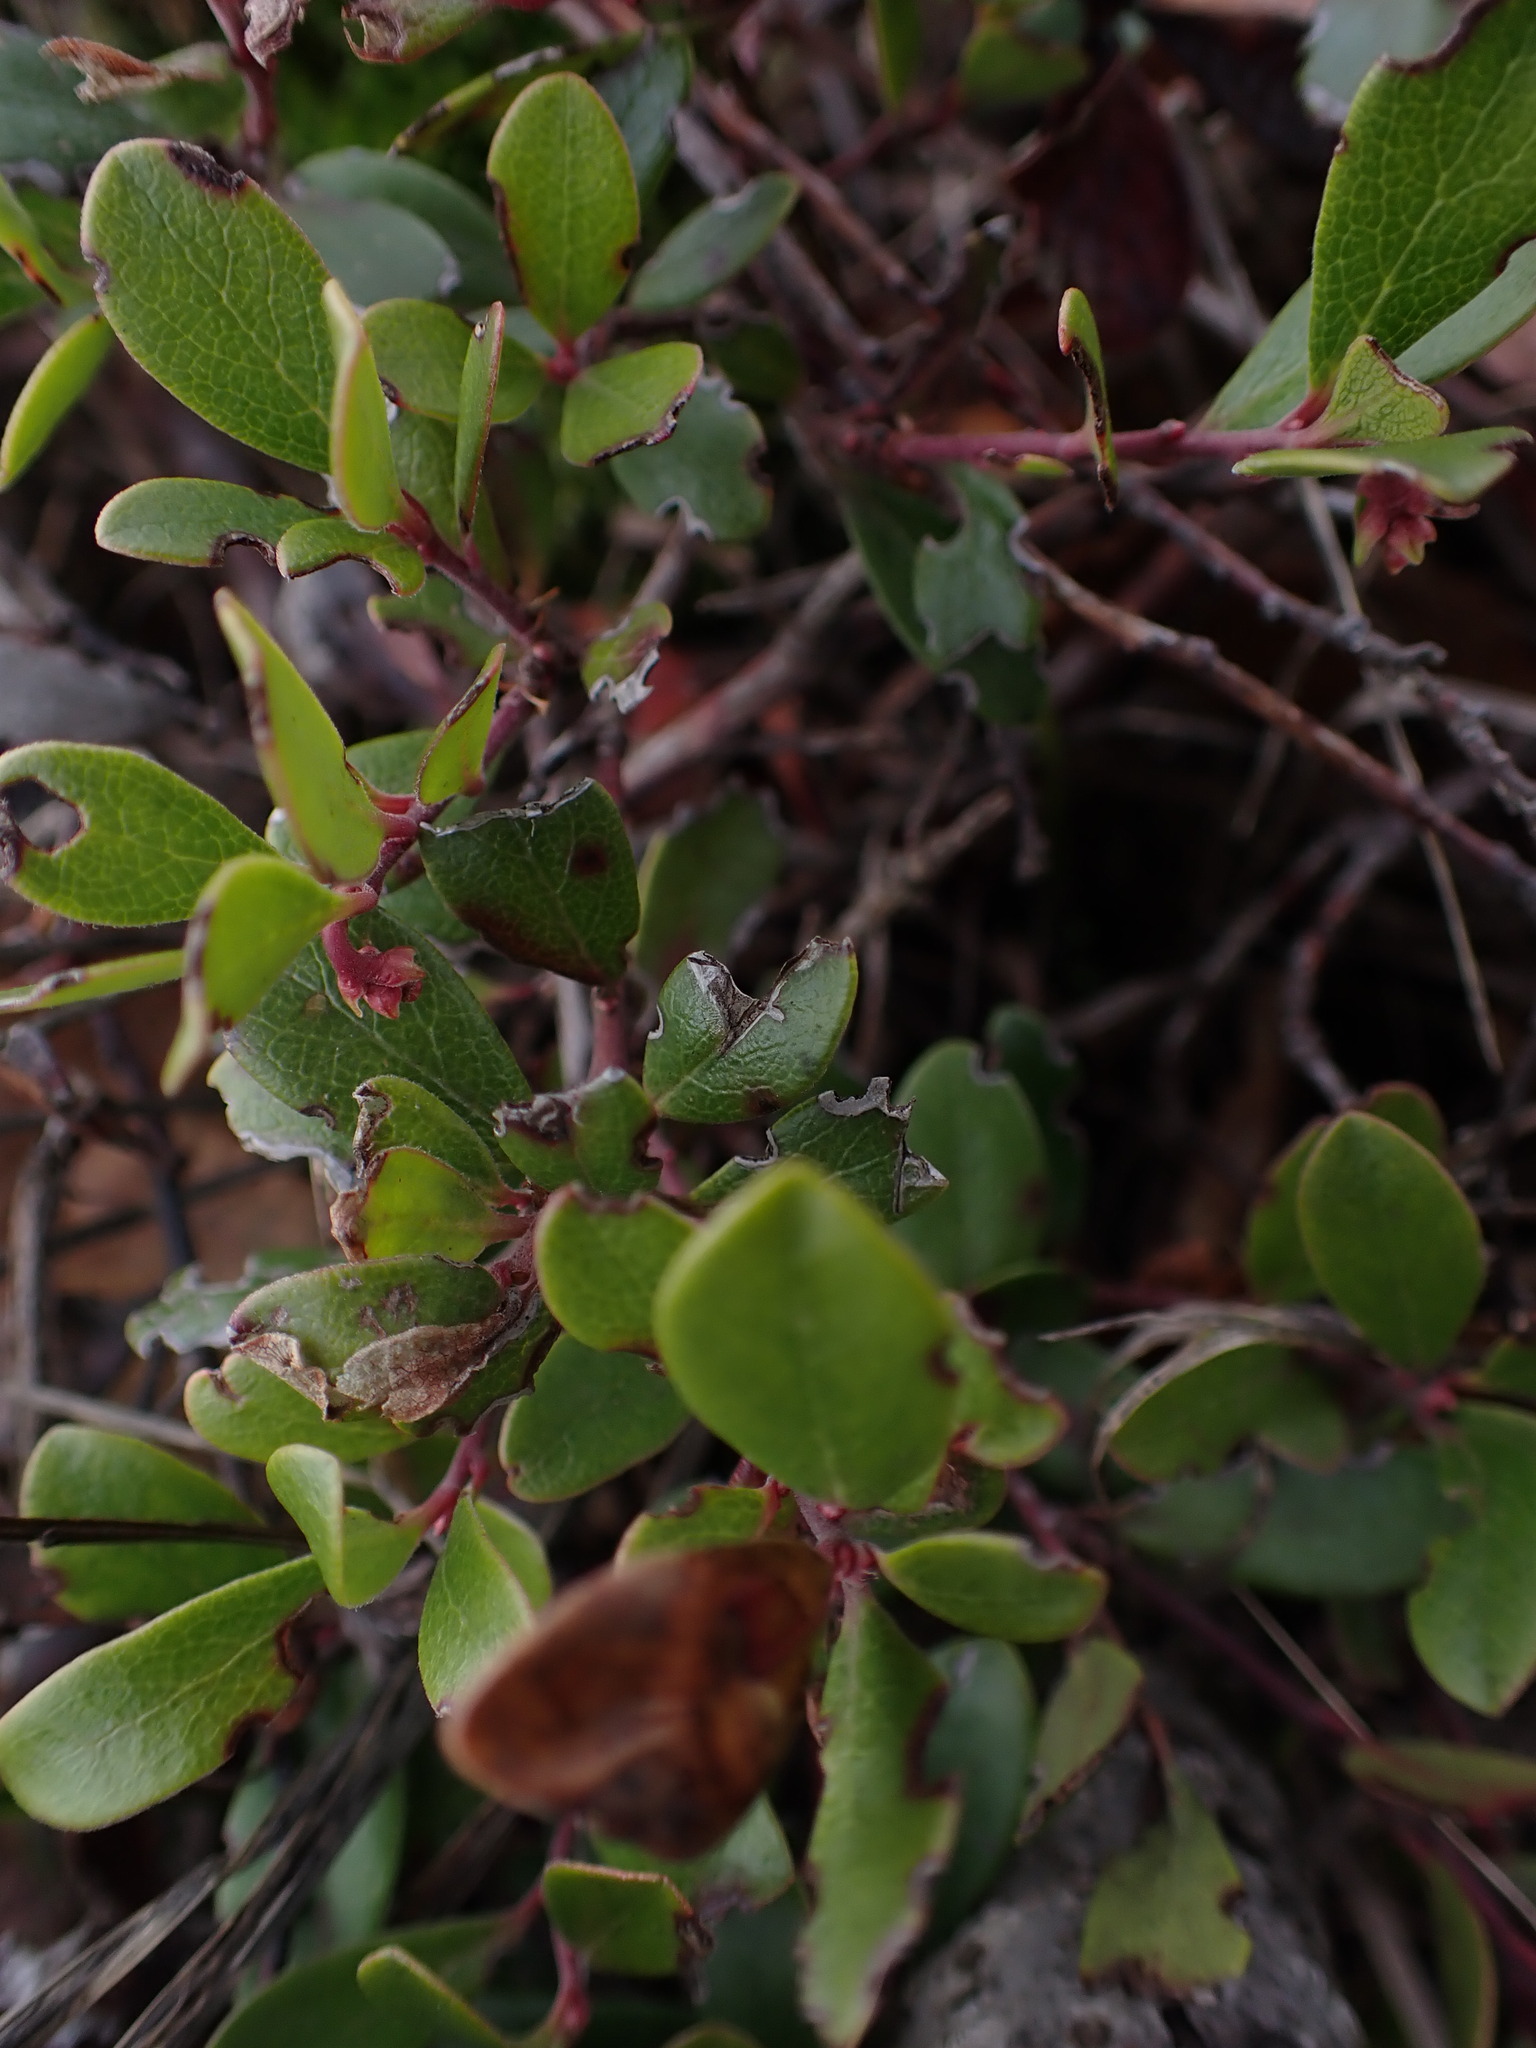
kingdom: Plantae
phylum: Tracheophyta
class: Magnoliopsida
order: Ericales
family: Ericaceae
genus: Arctostaphylos
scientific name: Arctostaphylos uva-ursi
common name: Bearberry
